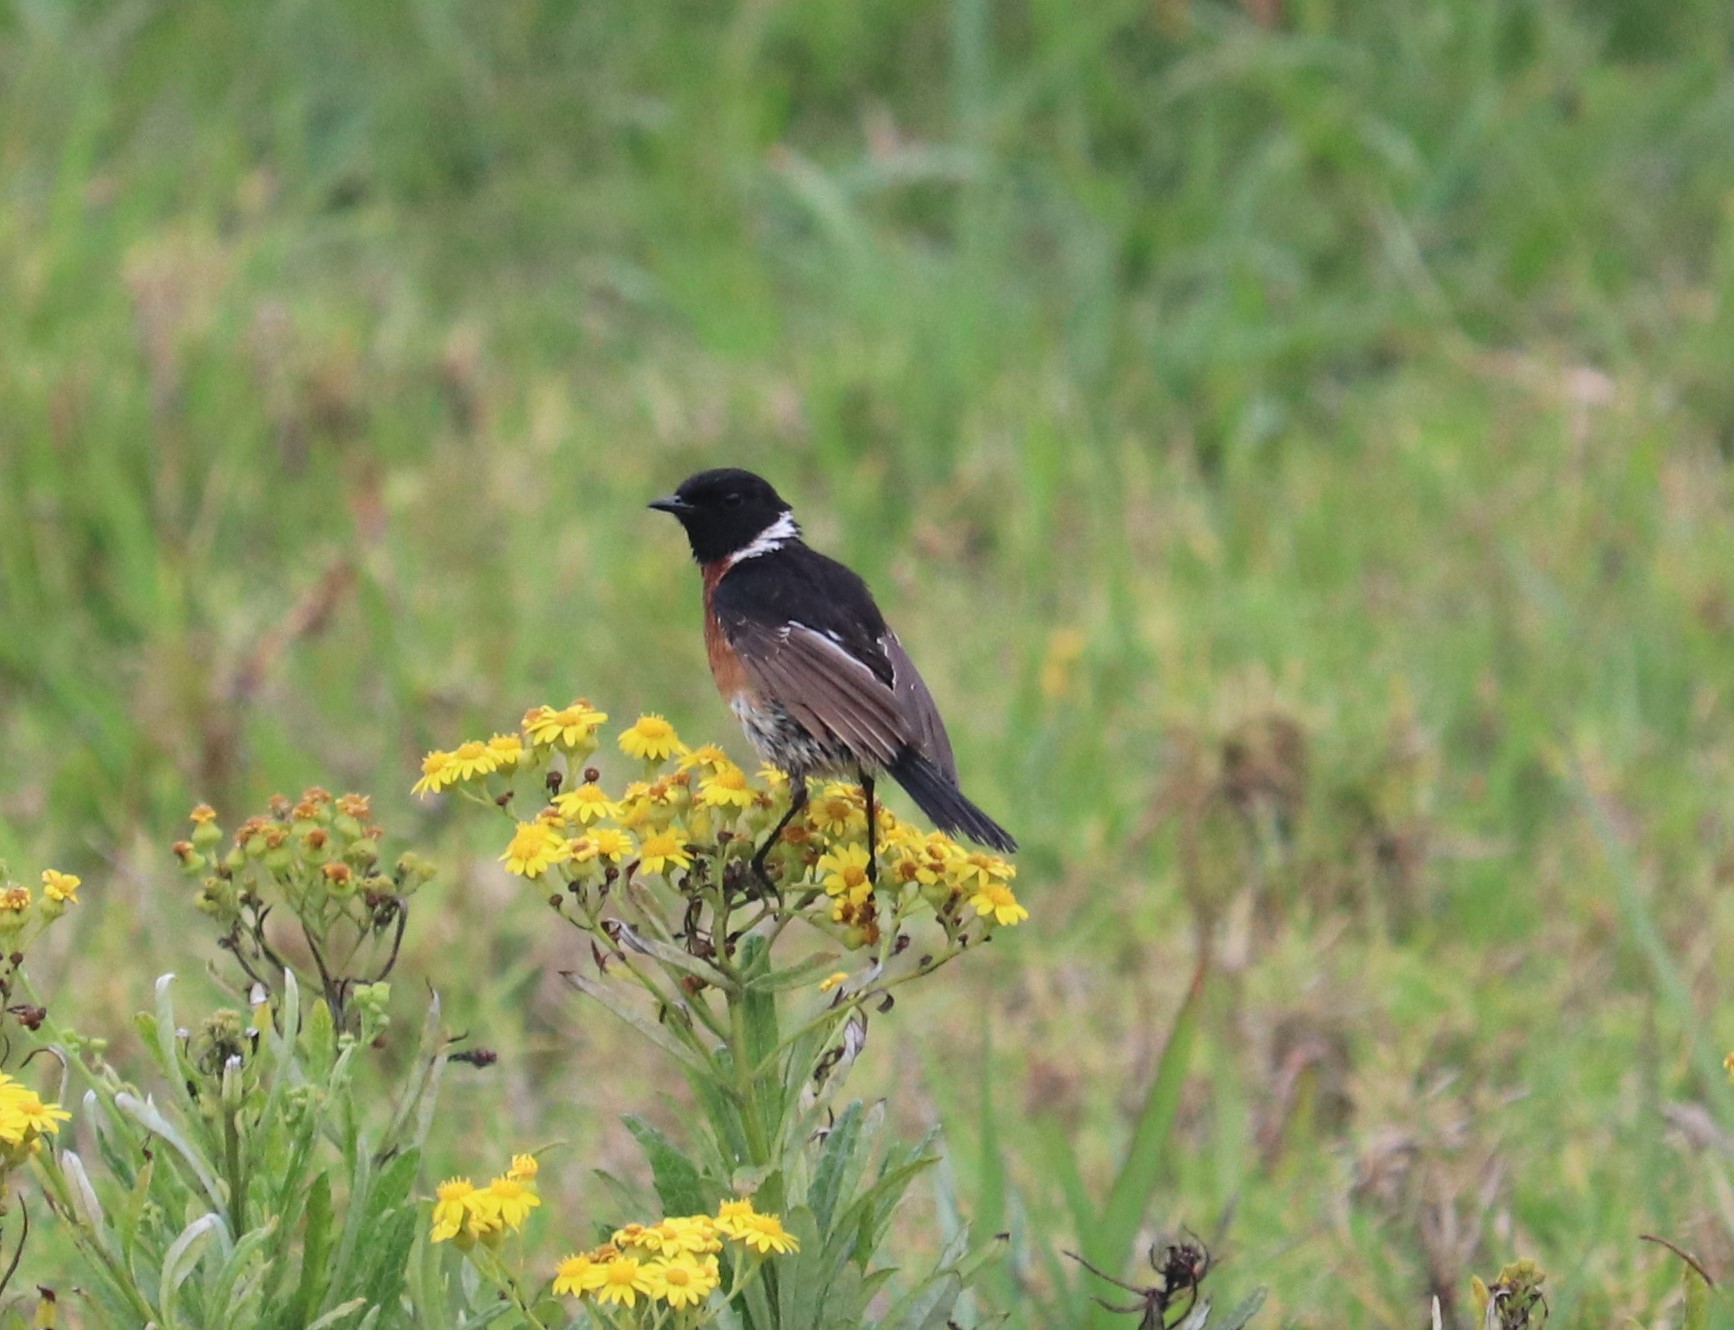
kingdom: Animalia
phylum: Chordata
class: Aves
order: Passeriformes
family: Muscicapidae
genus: Saxicola
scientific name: Saxicola torquatus
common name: African stonechat
